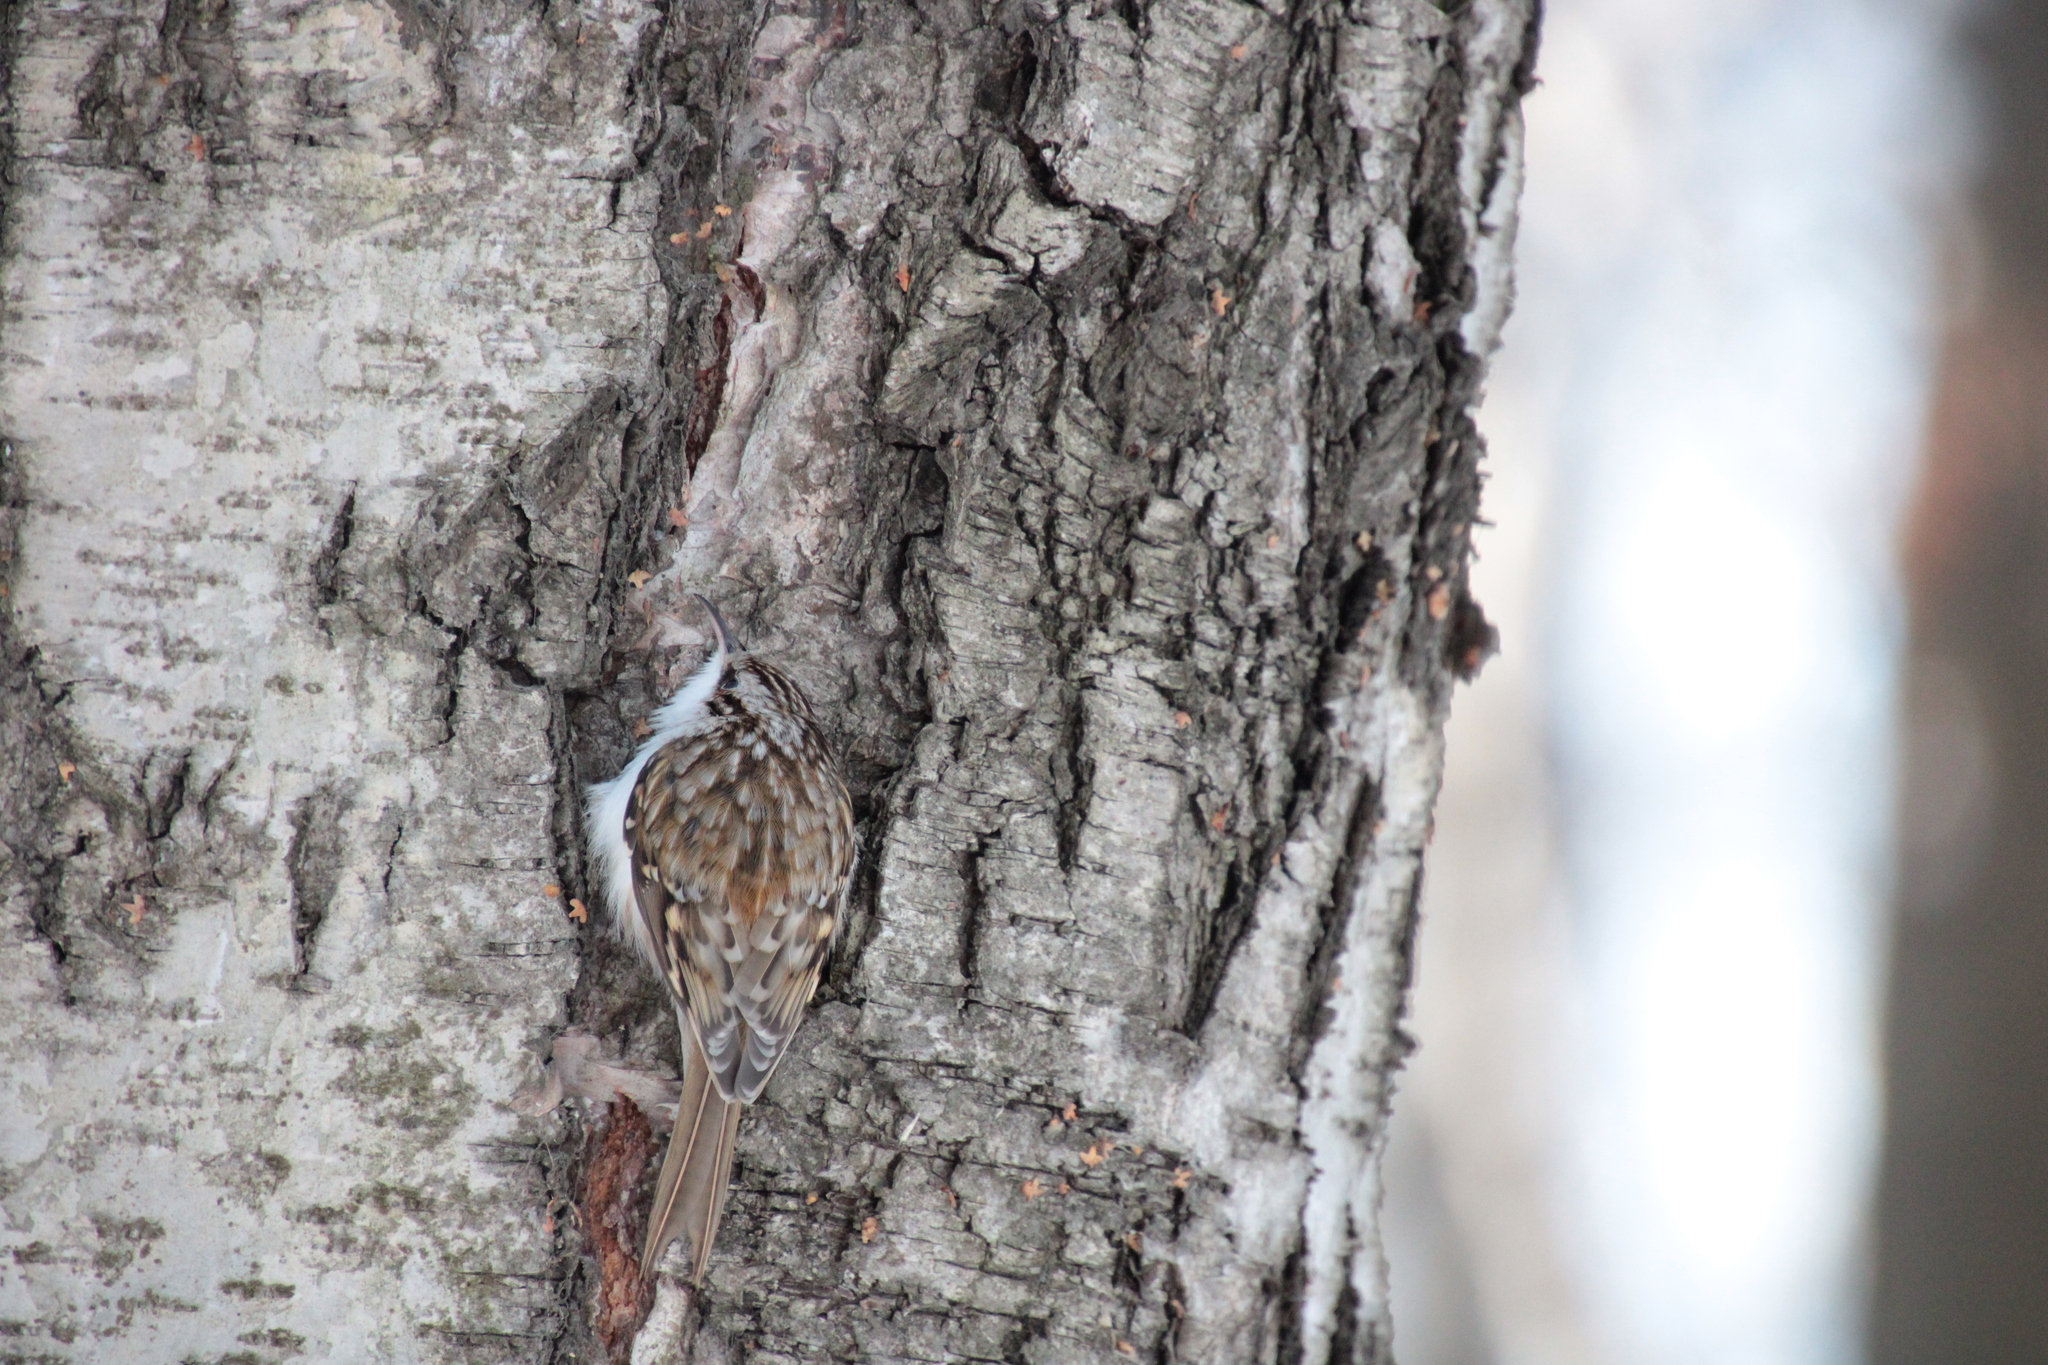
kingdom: Animalia
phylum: Chordata
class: Aves
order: Passeriformes
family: Certhiidae
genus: Certhia
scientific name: Certhia familiaris
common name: Eurasian treecreeper
